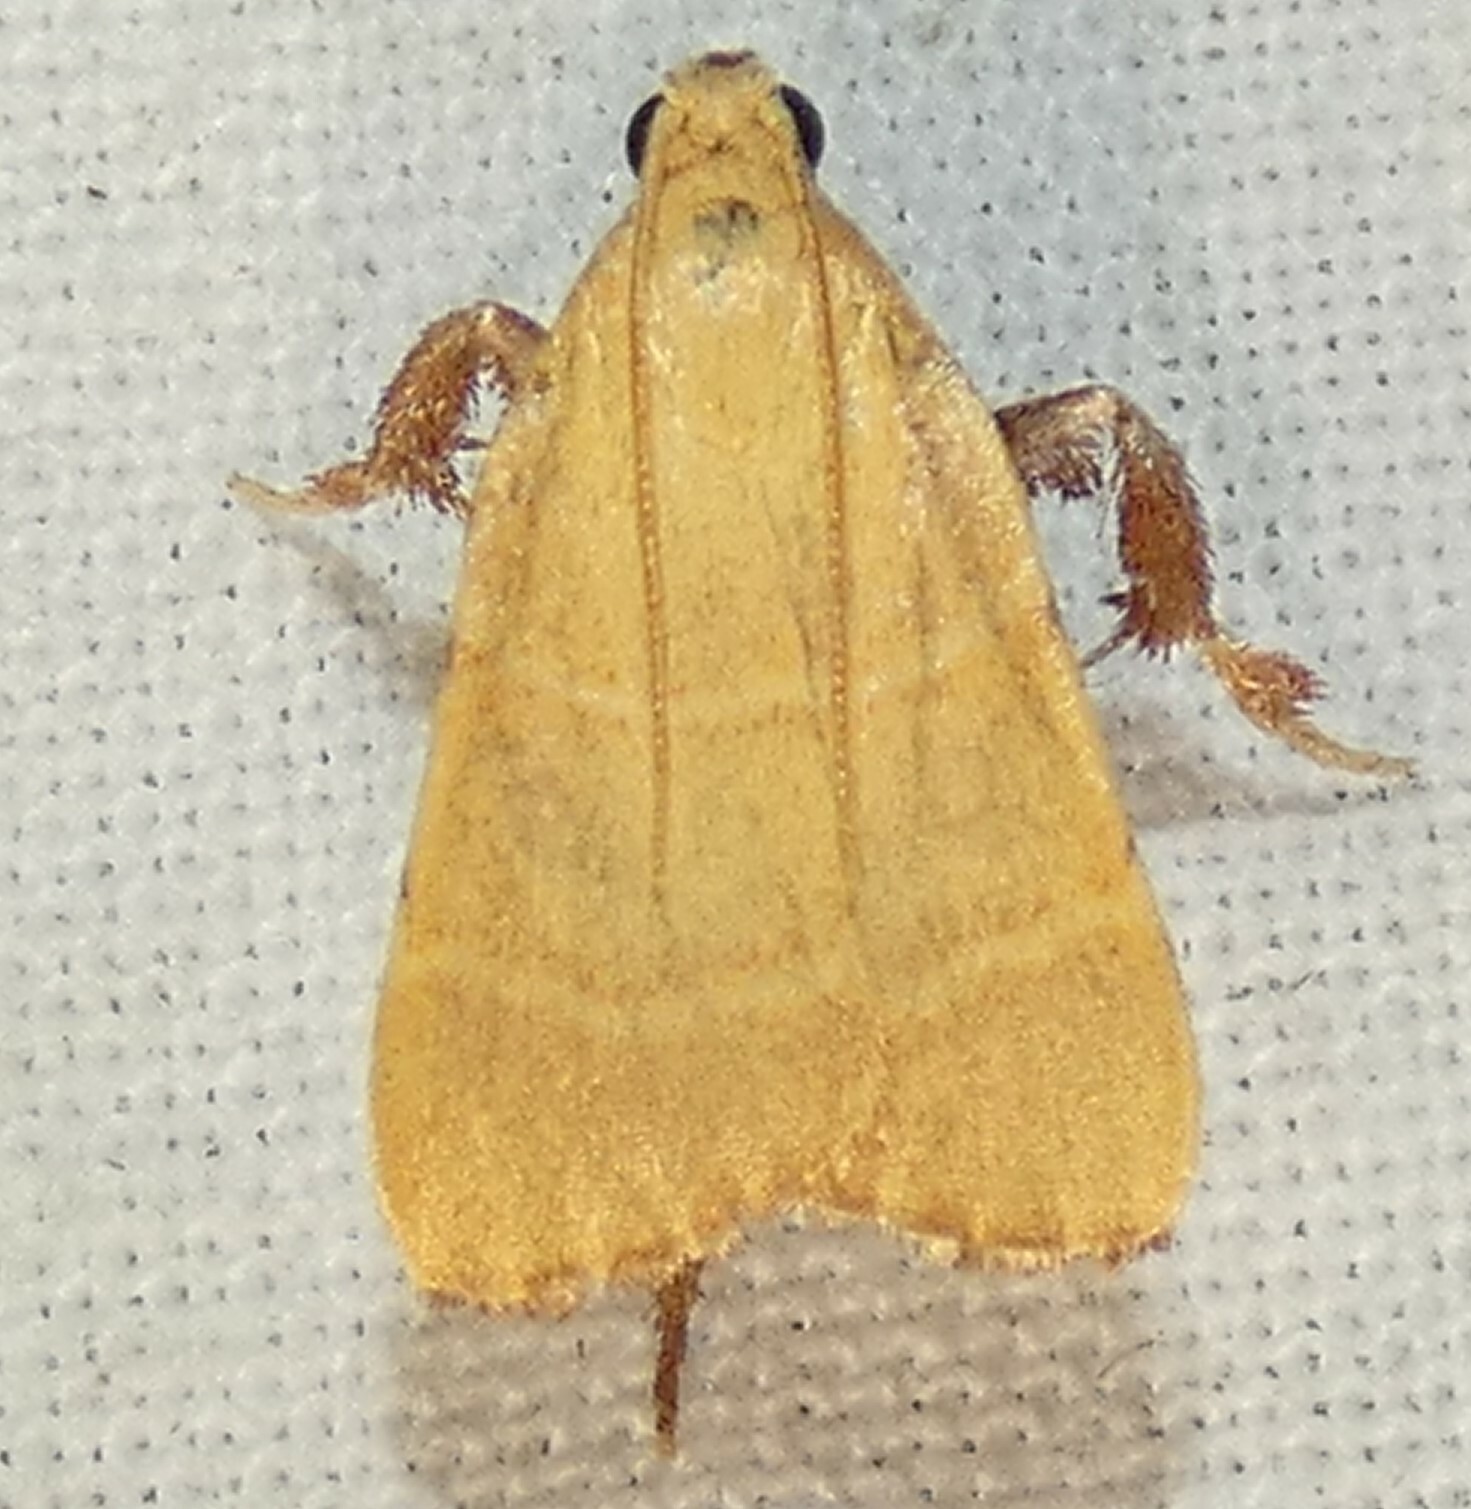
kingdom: Animalia
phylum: Arthropoda
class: Insecta
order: Lepidoptera
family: Pyralidae
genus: Parachma
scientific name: Parachma ochracealis
